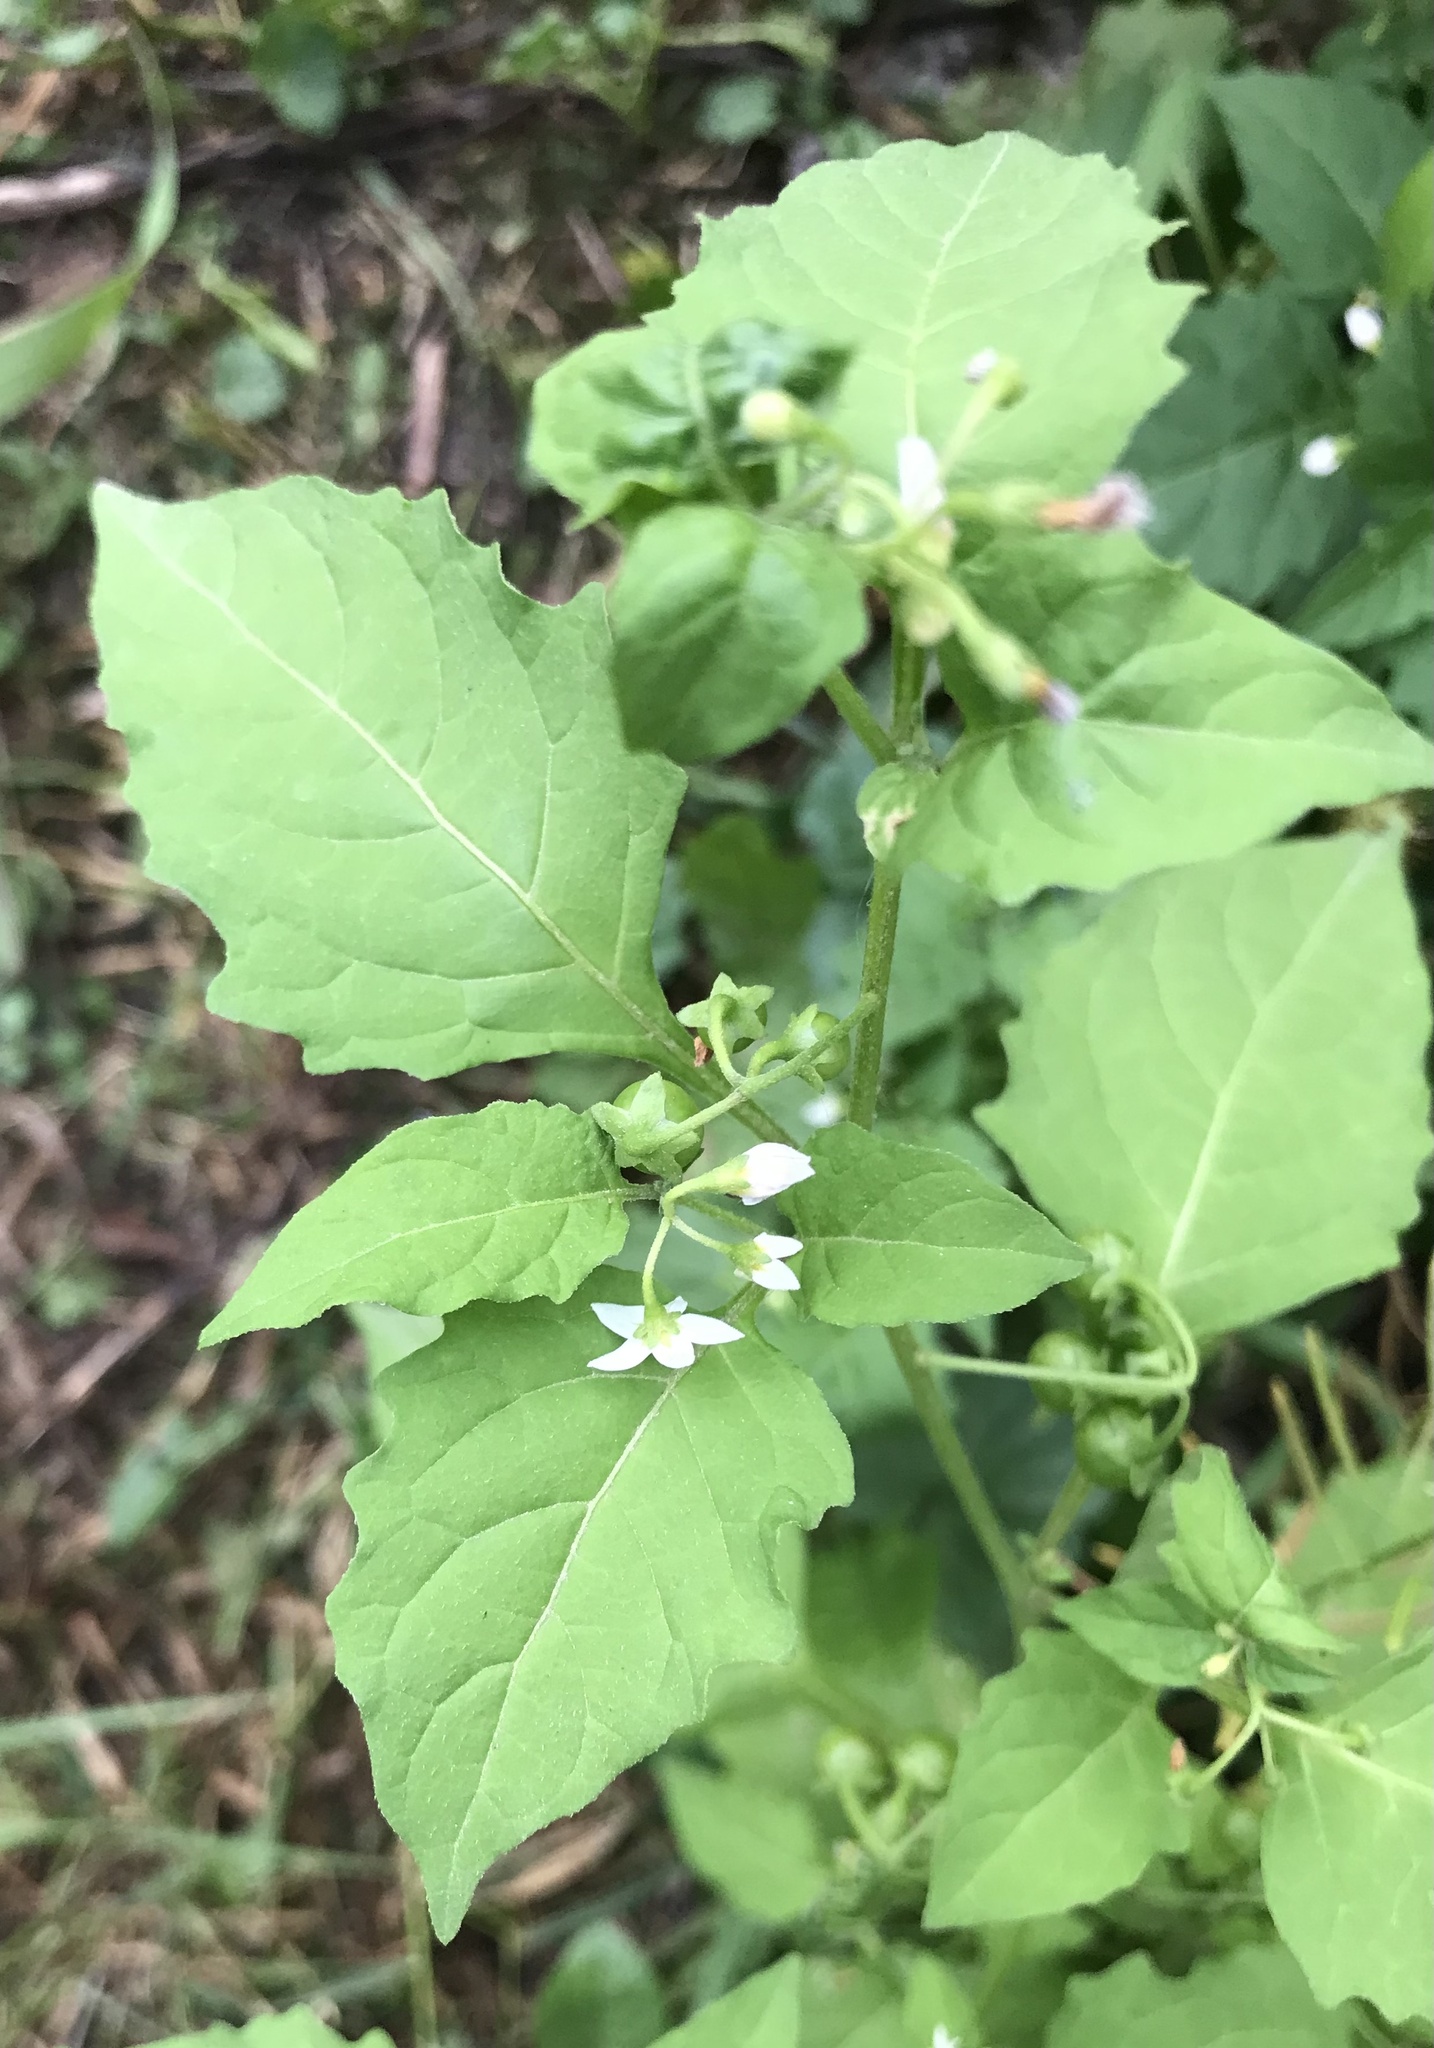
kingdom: Plantae
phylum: Tracheophyta
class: Magnoliopsida
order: Solanales
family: Solanaceae
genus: Solanum
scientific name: Solanum emulans
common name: Eastern black nightshade
